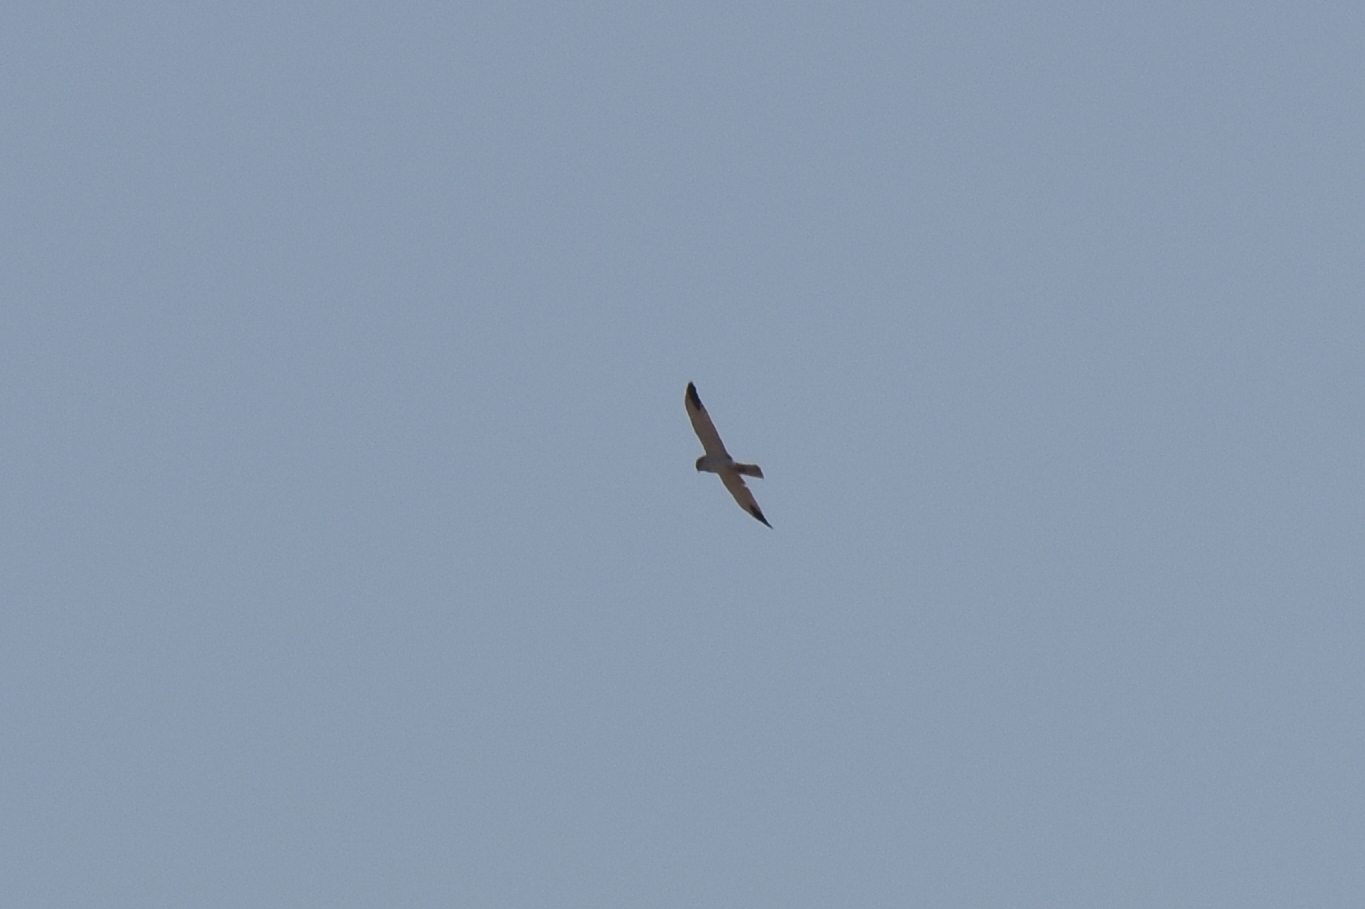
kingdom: Animalia
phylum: Chordata
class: Aves
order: Accipitriformes
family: Accipitridae
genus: Circus
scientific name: Circus macrourus
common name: Pallid harrier
